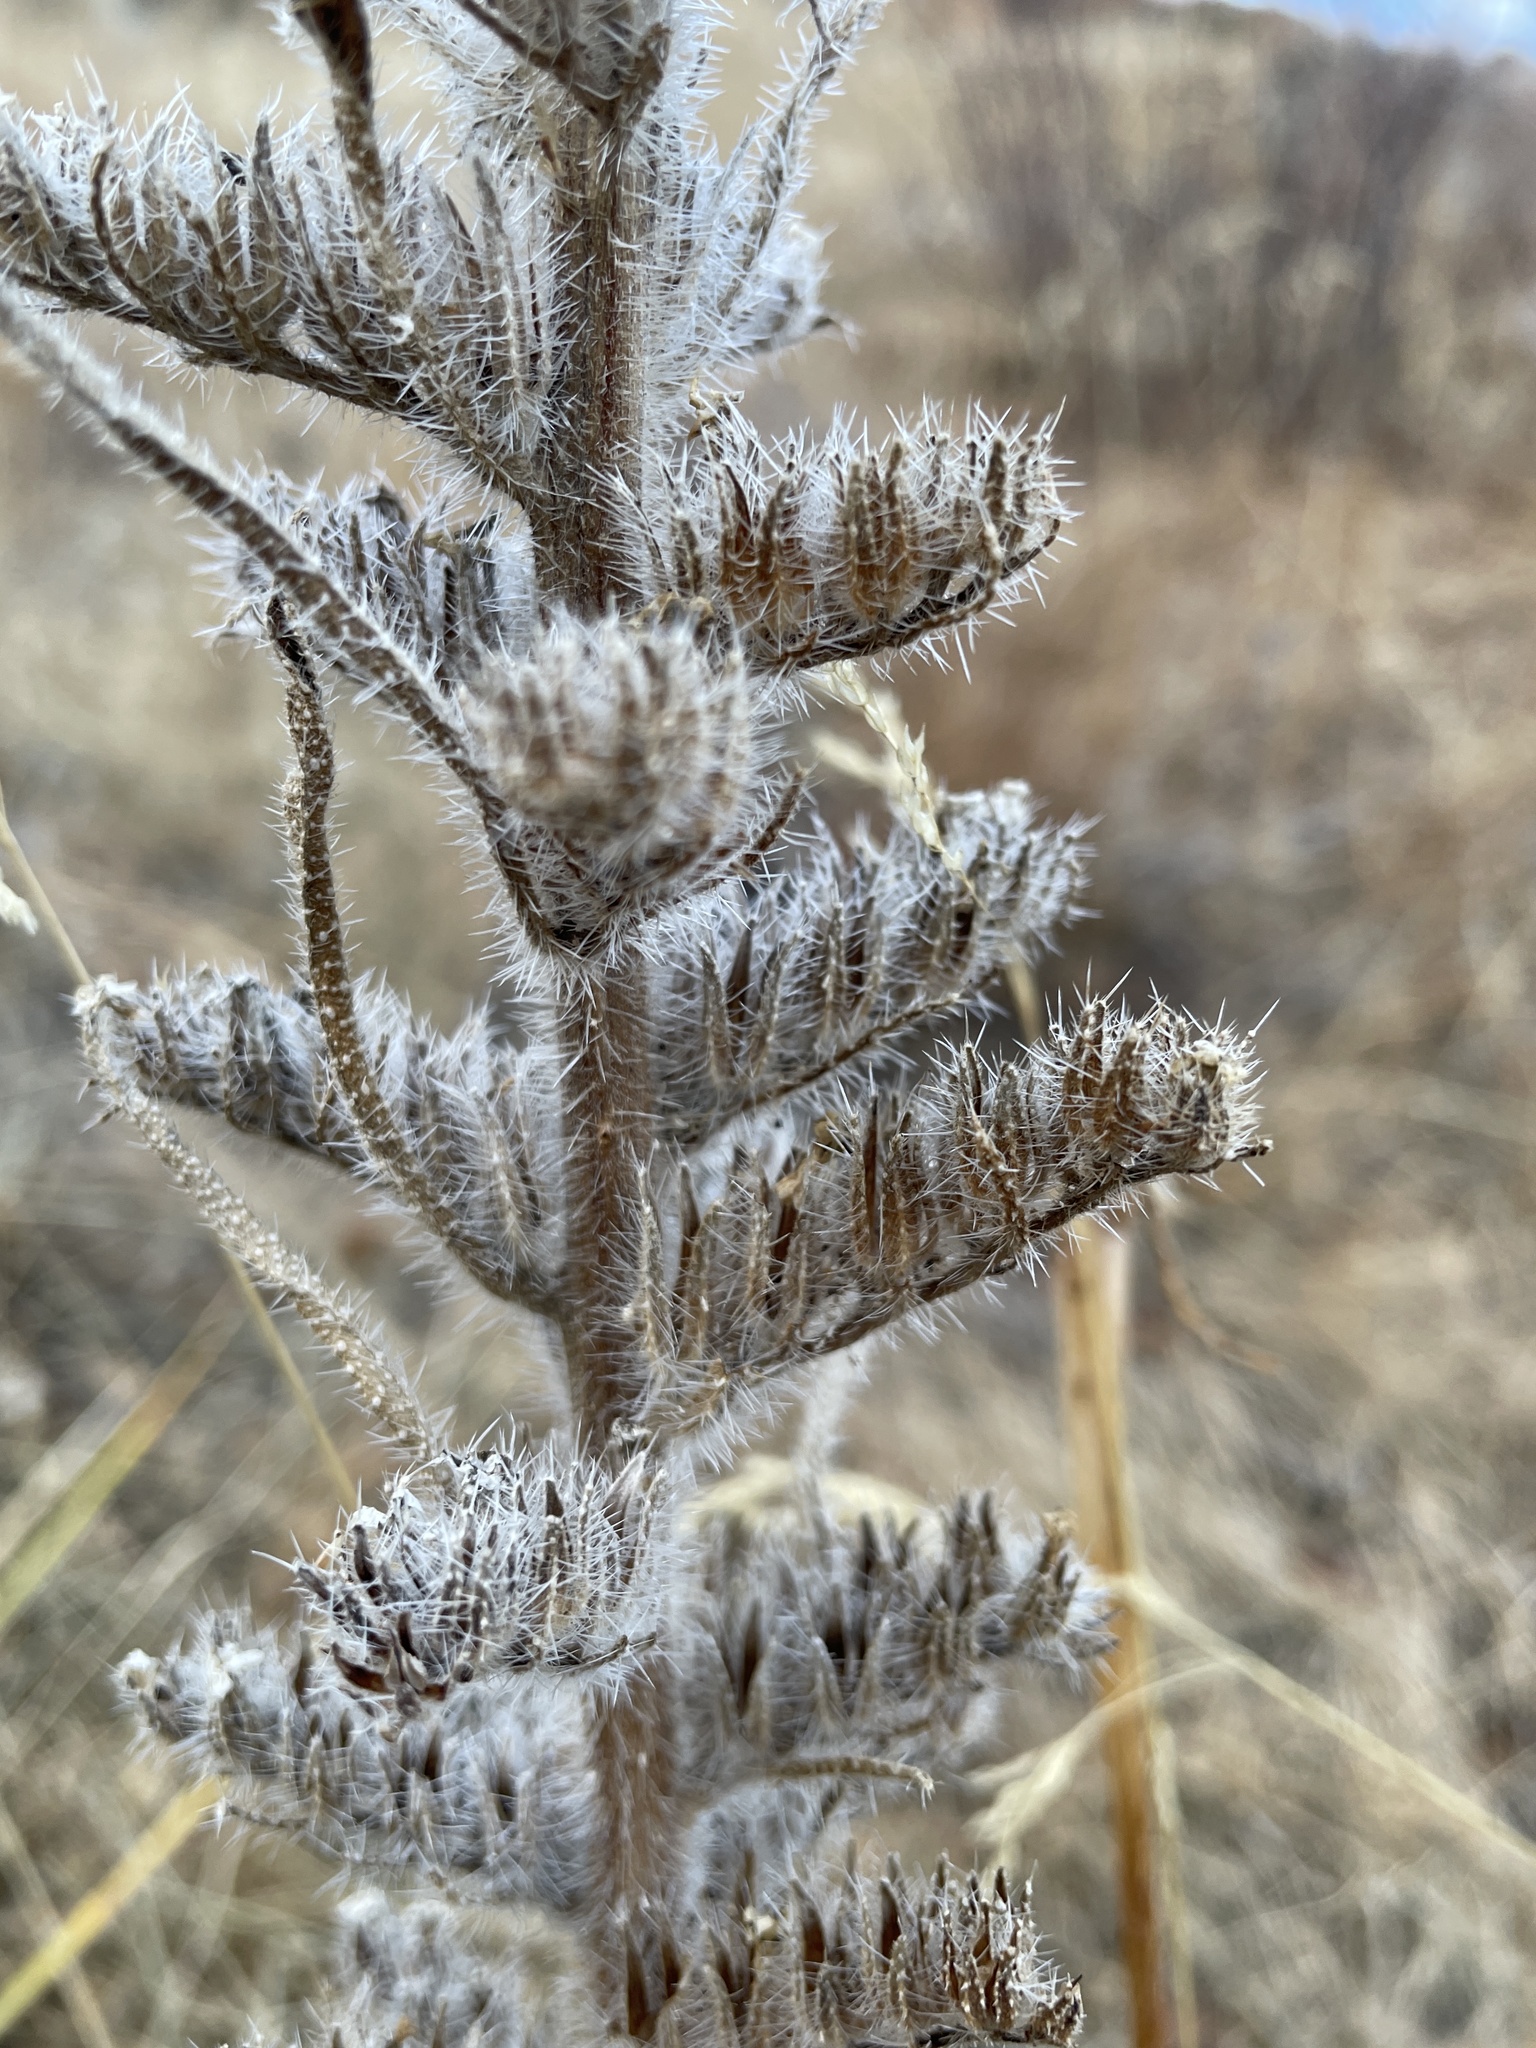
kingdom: Plantae
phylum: Tracheophyta
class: Magnoliopsida
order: Boraginales
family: Boraginaceae
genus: Oreocarya
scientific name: Oreocarya virgata
